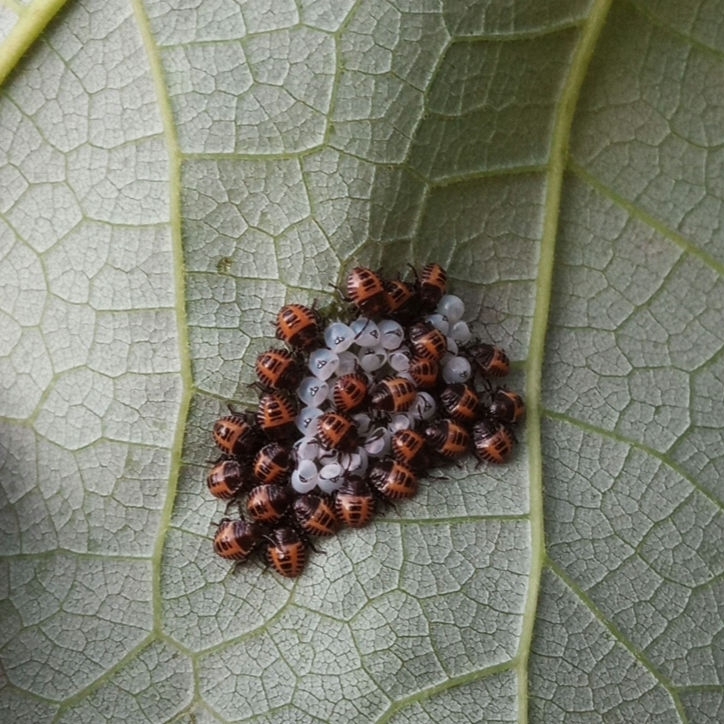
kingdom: Animalia
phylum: Arthropoda
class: Insecta
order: Hemiptera
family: Pentatomidae
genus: Halyomorpha
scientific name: Halyomorpha halys
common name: Brown marmorated stink bug
